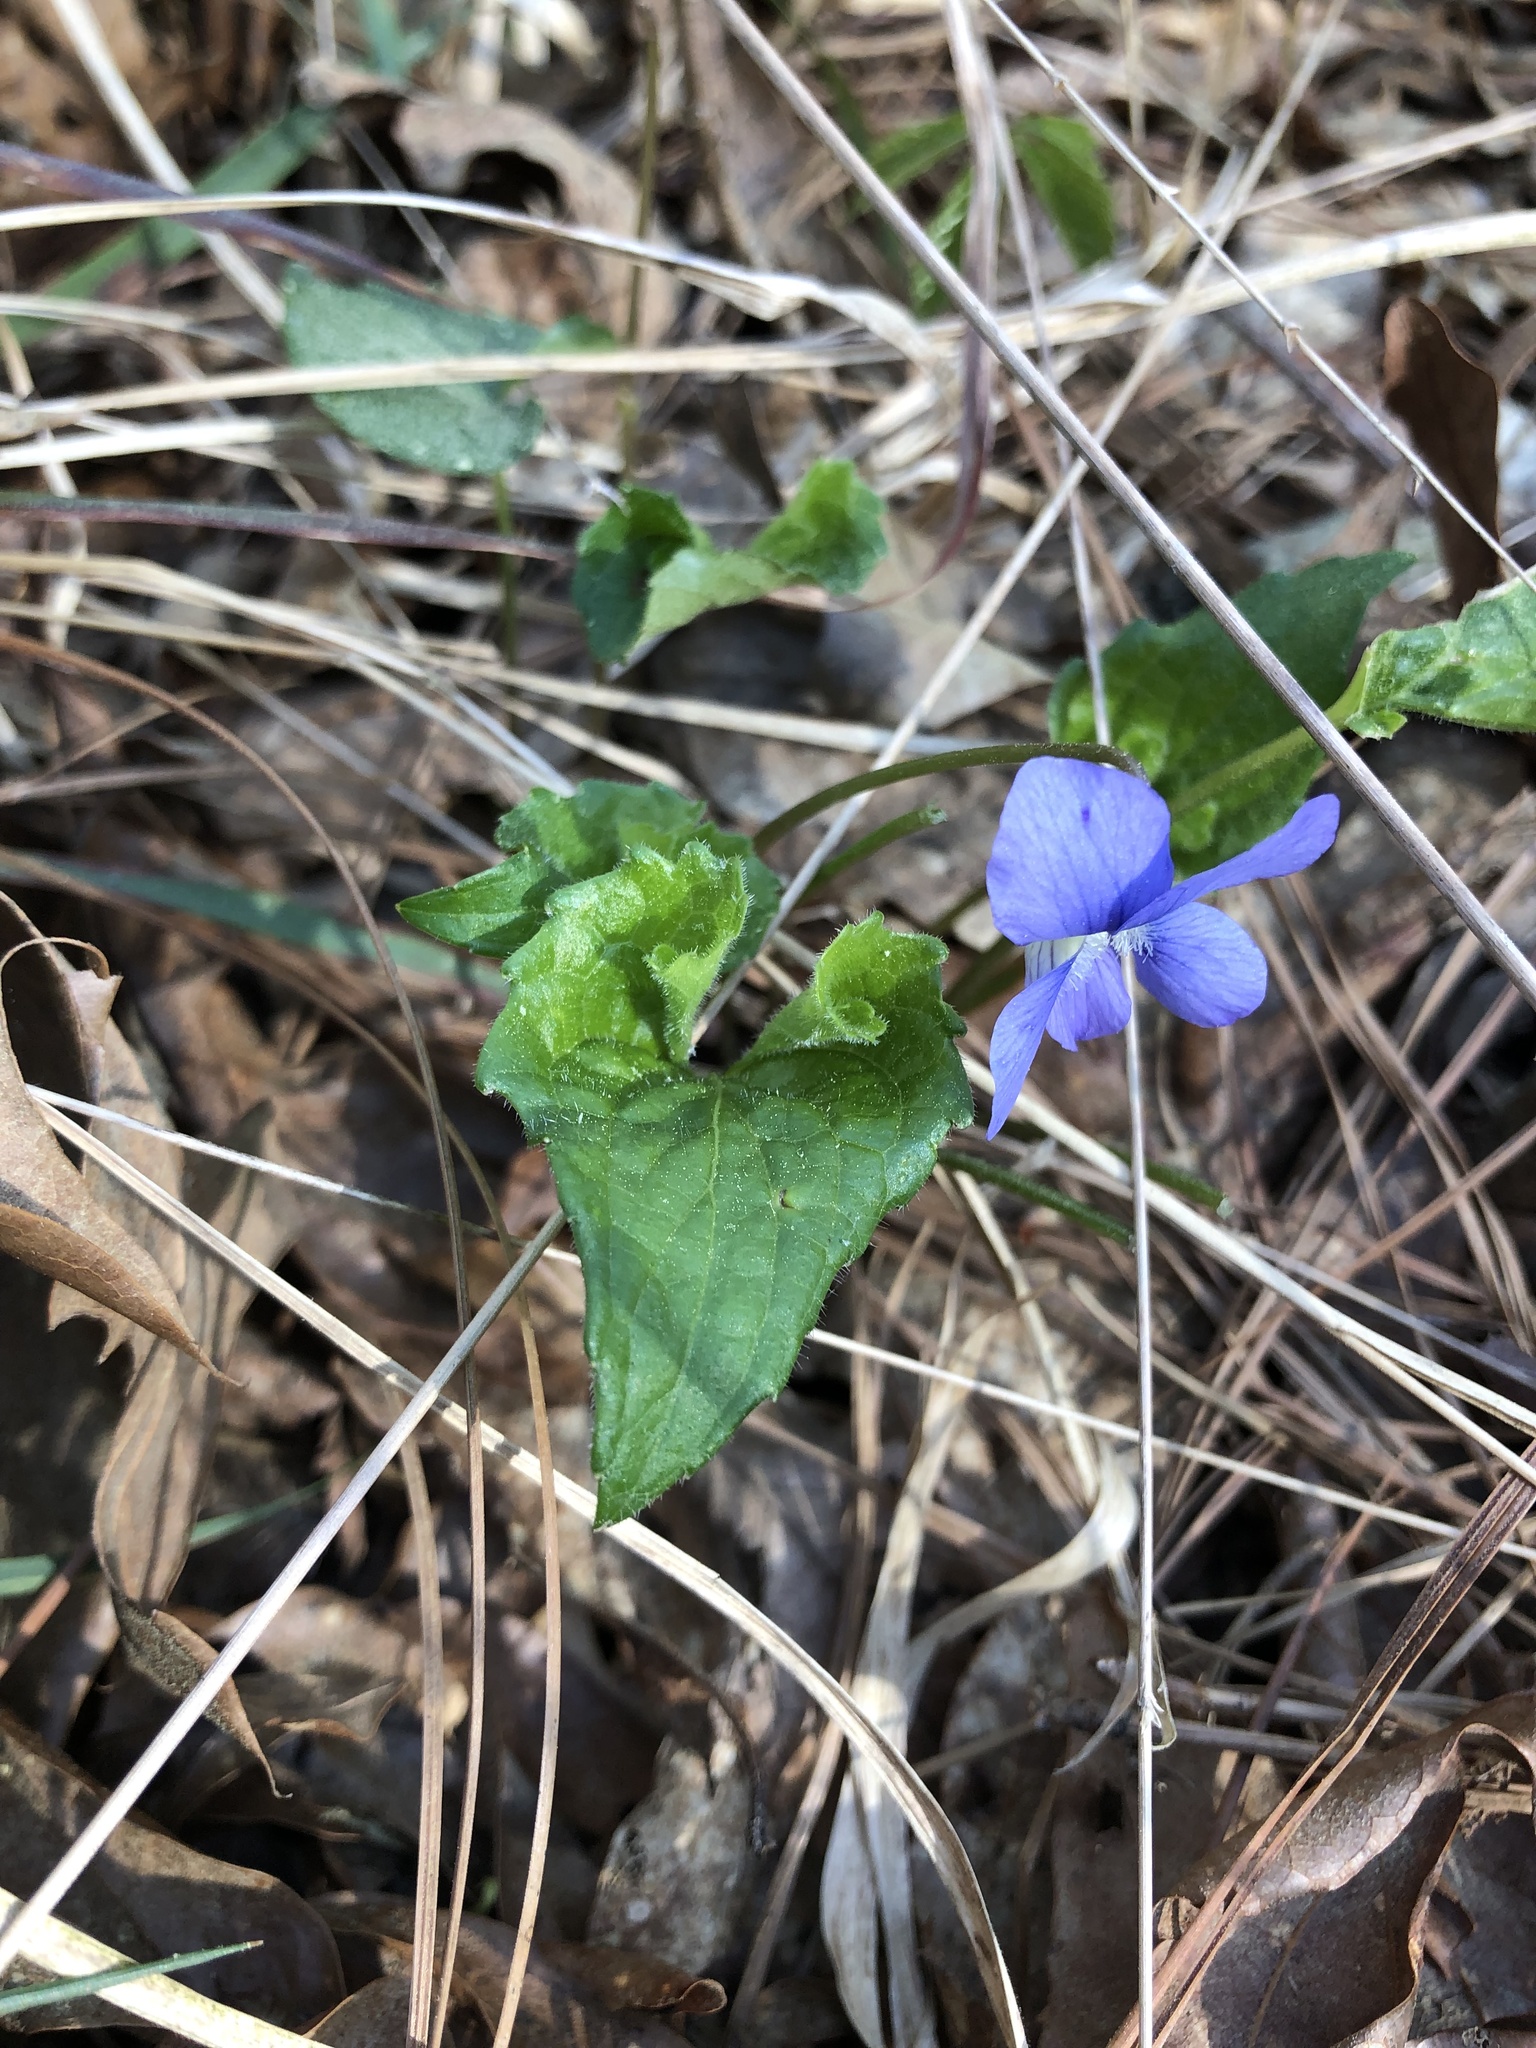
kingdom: Plantae
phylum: Tracheophyta
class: Magnoliopsida
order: Malpighiales
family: Violaceae
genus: Viola
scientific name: Viola sororia
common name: Dooryard violet
